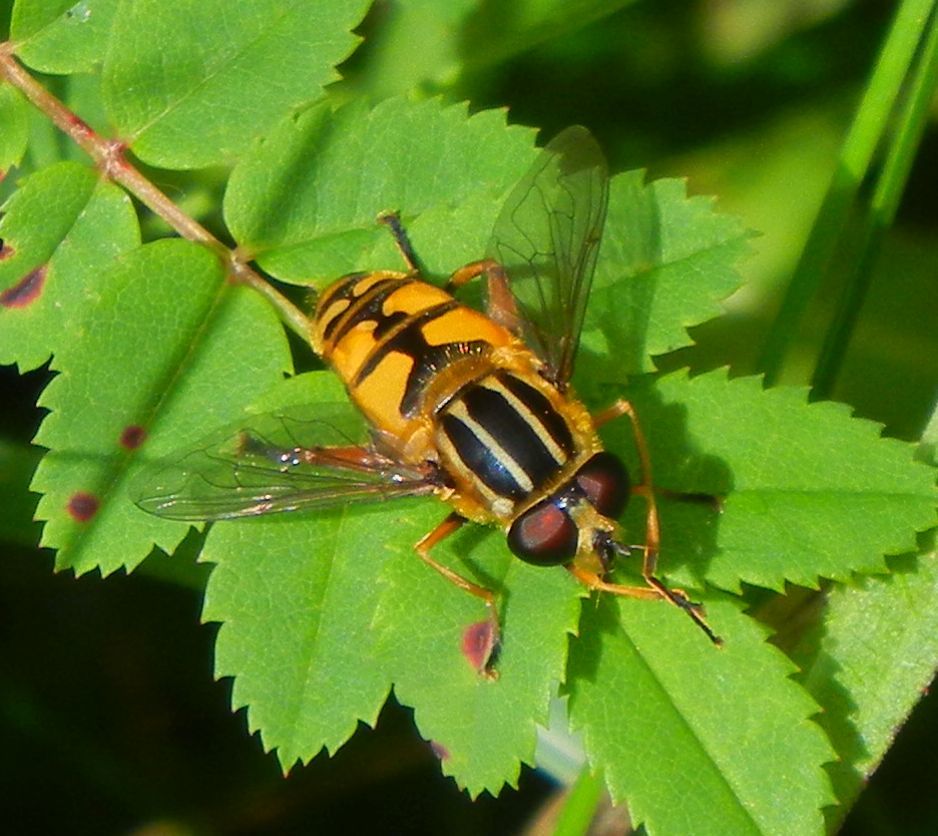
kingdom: Animalia
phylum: Arthropoda
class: Insecta
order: Diptera
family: Syrphidae
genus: Helophilus
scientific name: Helophilus pendulus
